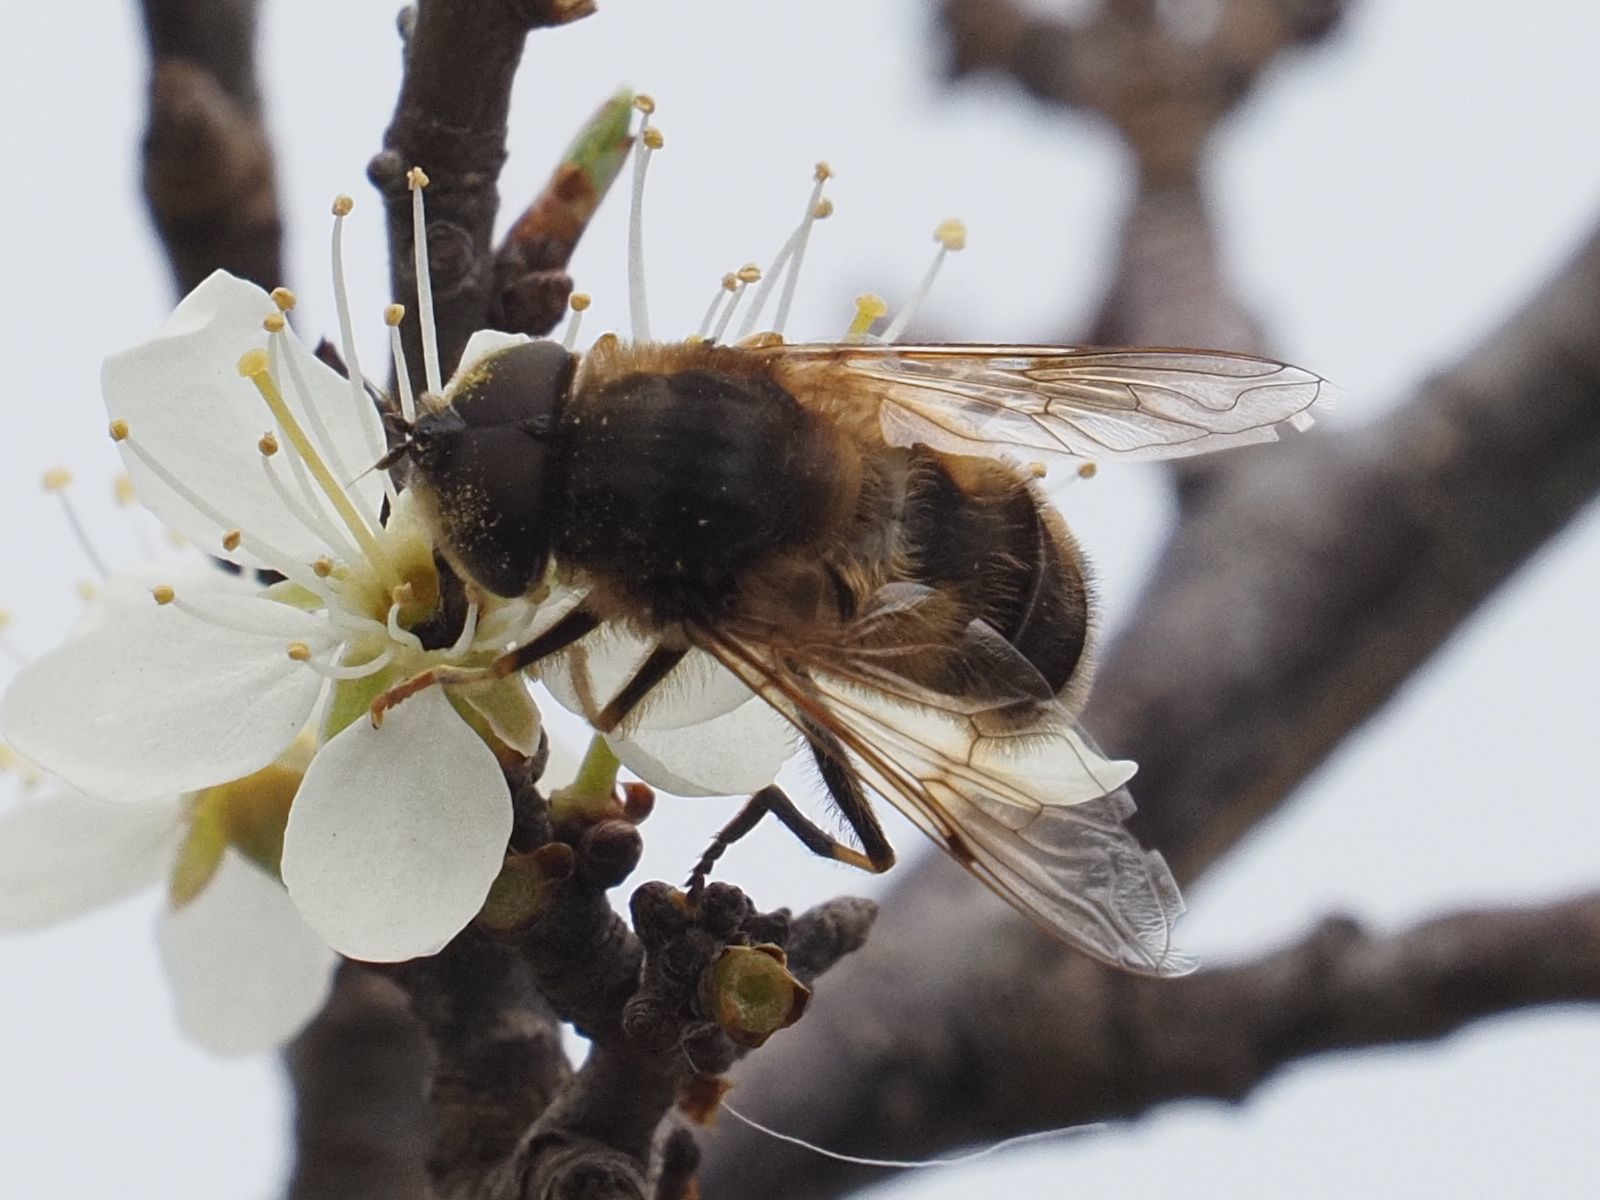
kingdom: Animalia
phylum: Arthropoda
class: Insecta
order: Diptera
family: Syrphidae
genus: Eristalis
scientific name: Eristalis pertinax
